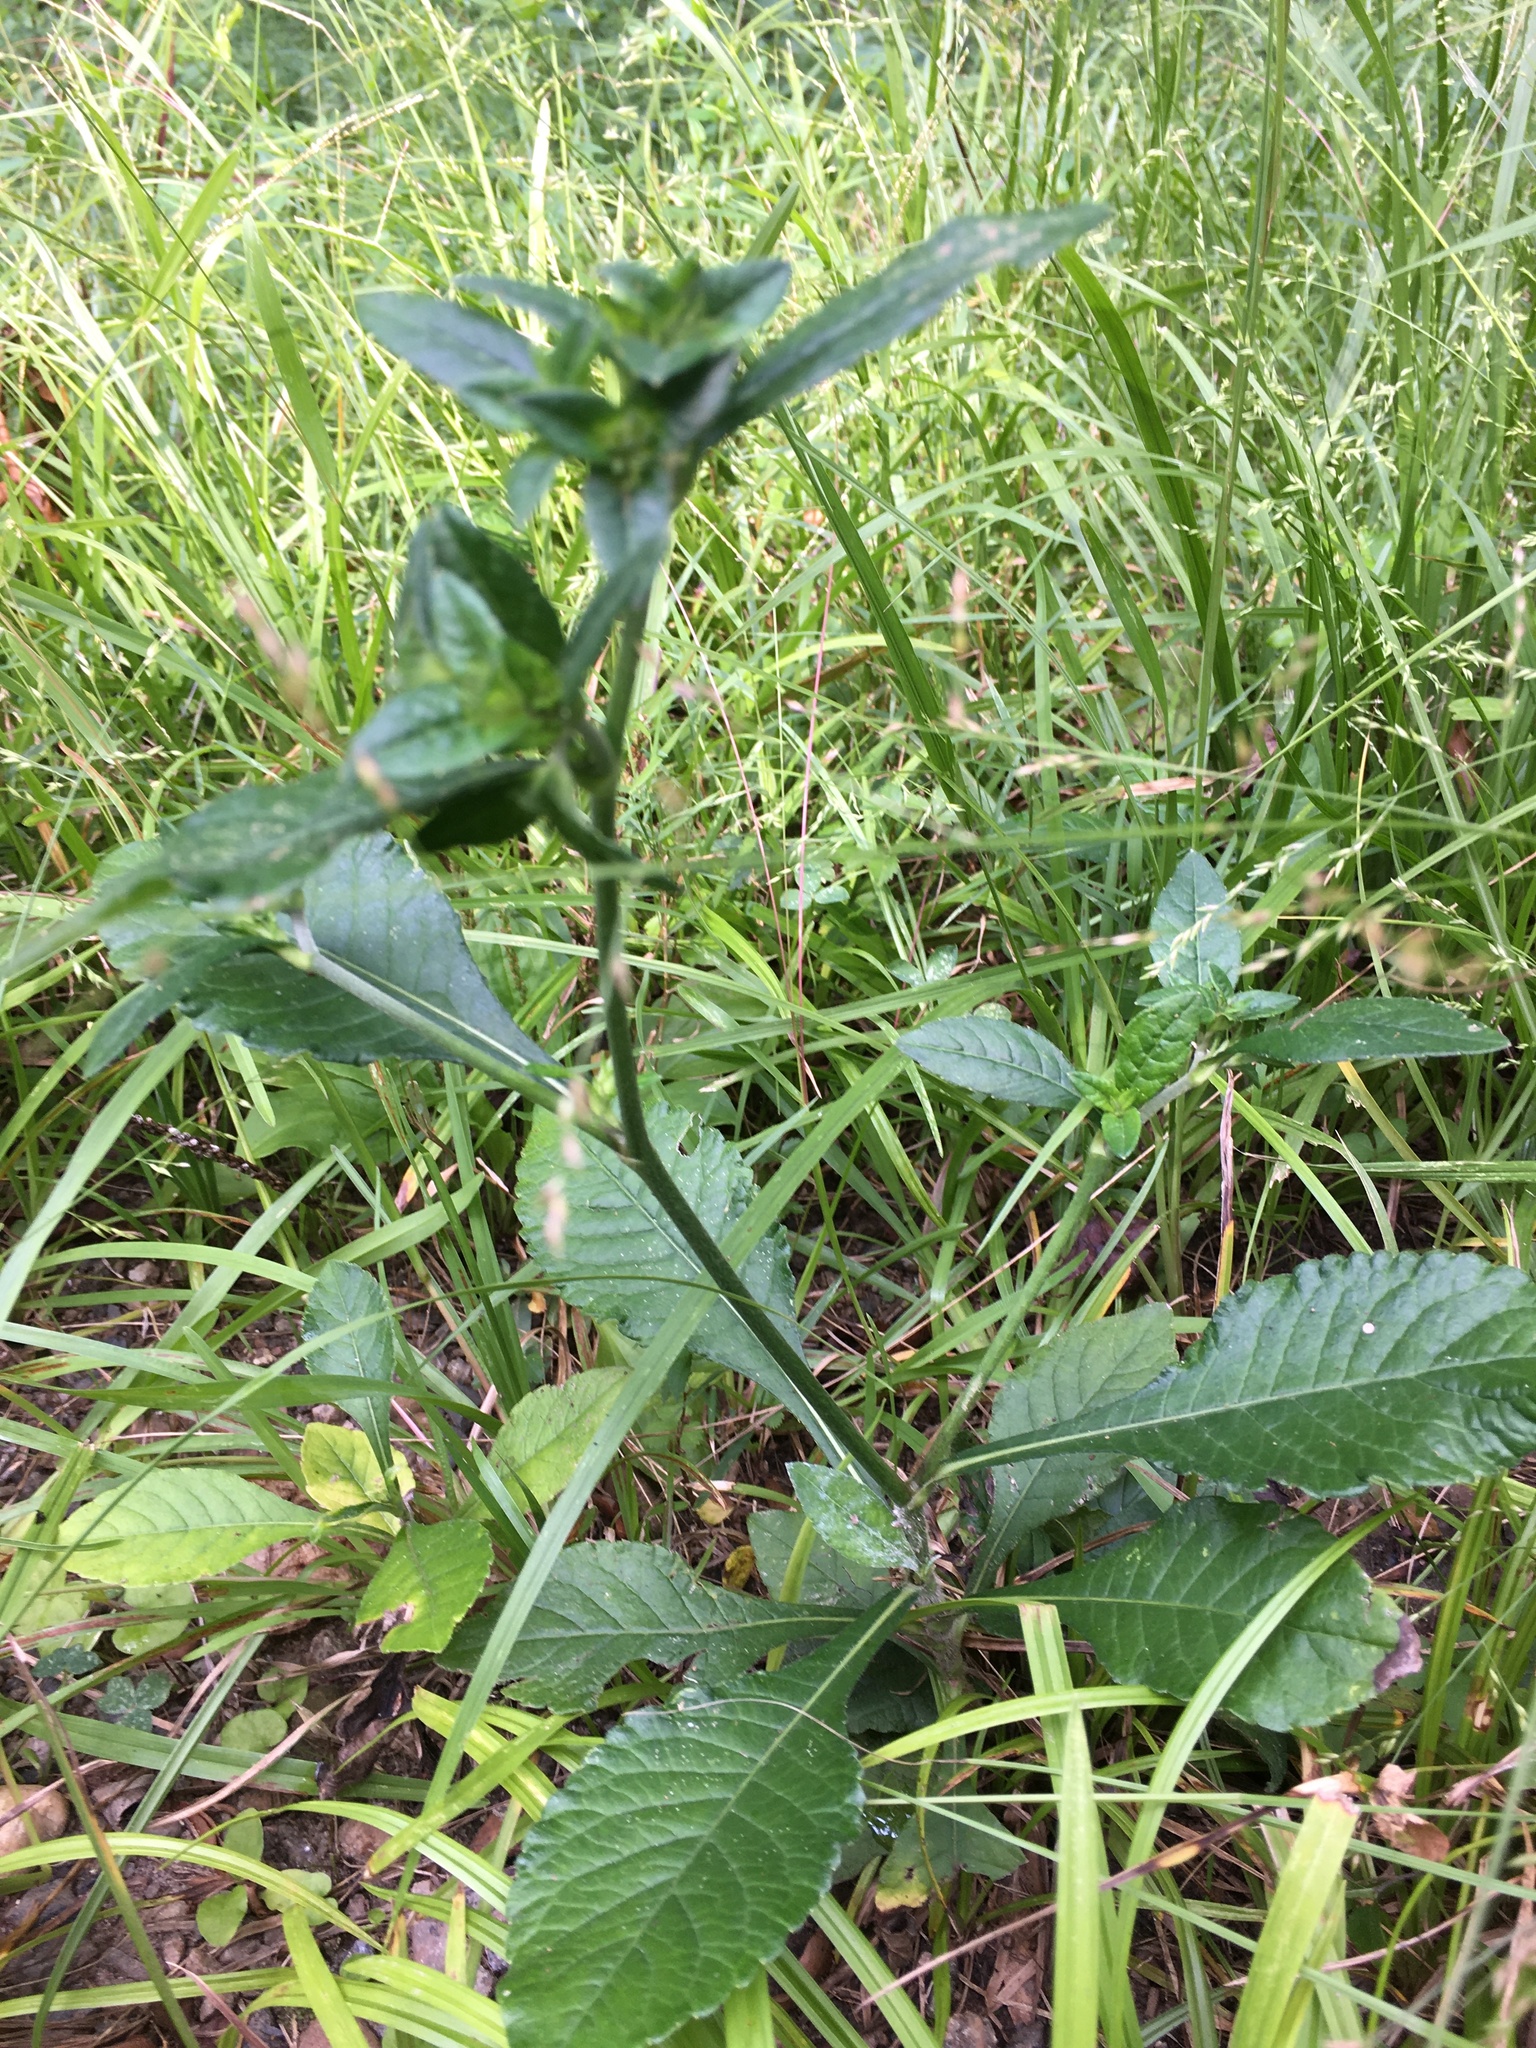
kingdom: Plantae
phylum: Tracheophyta
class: Magnoliopsida
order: Asterales
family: Asteraceae
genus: Elephantopus
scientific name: Elephantopus carolinianus
